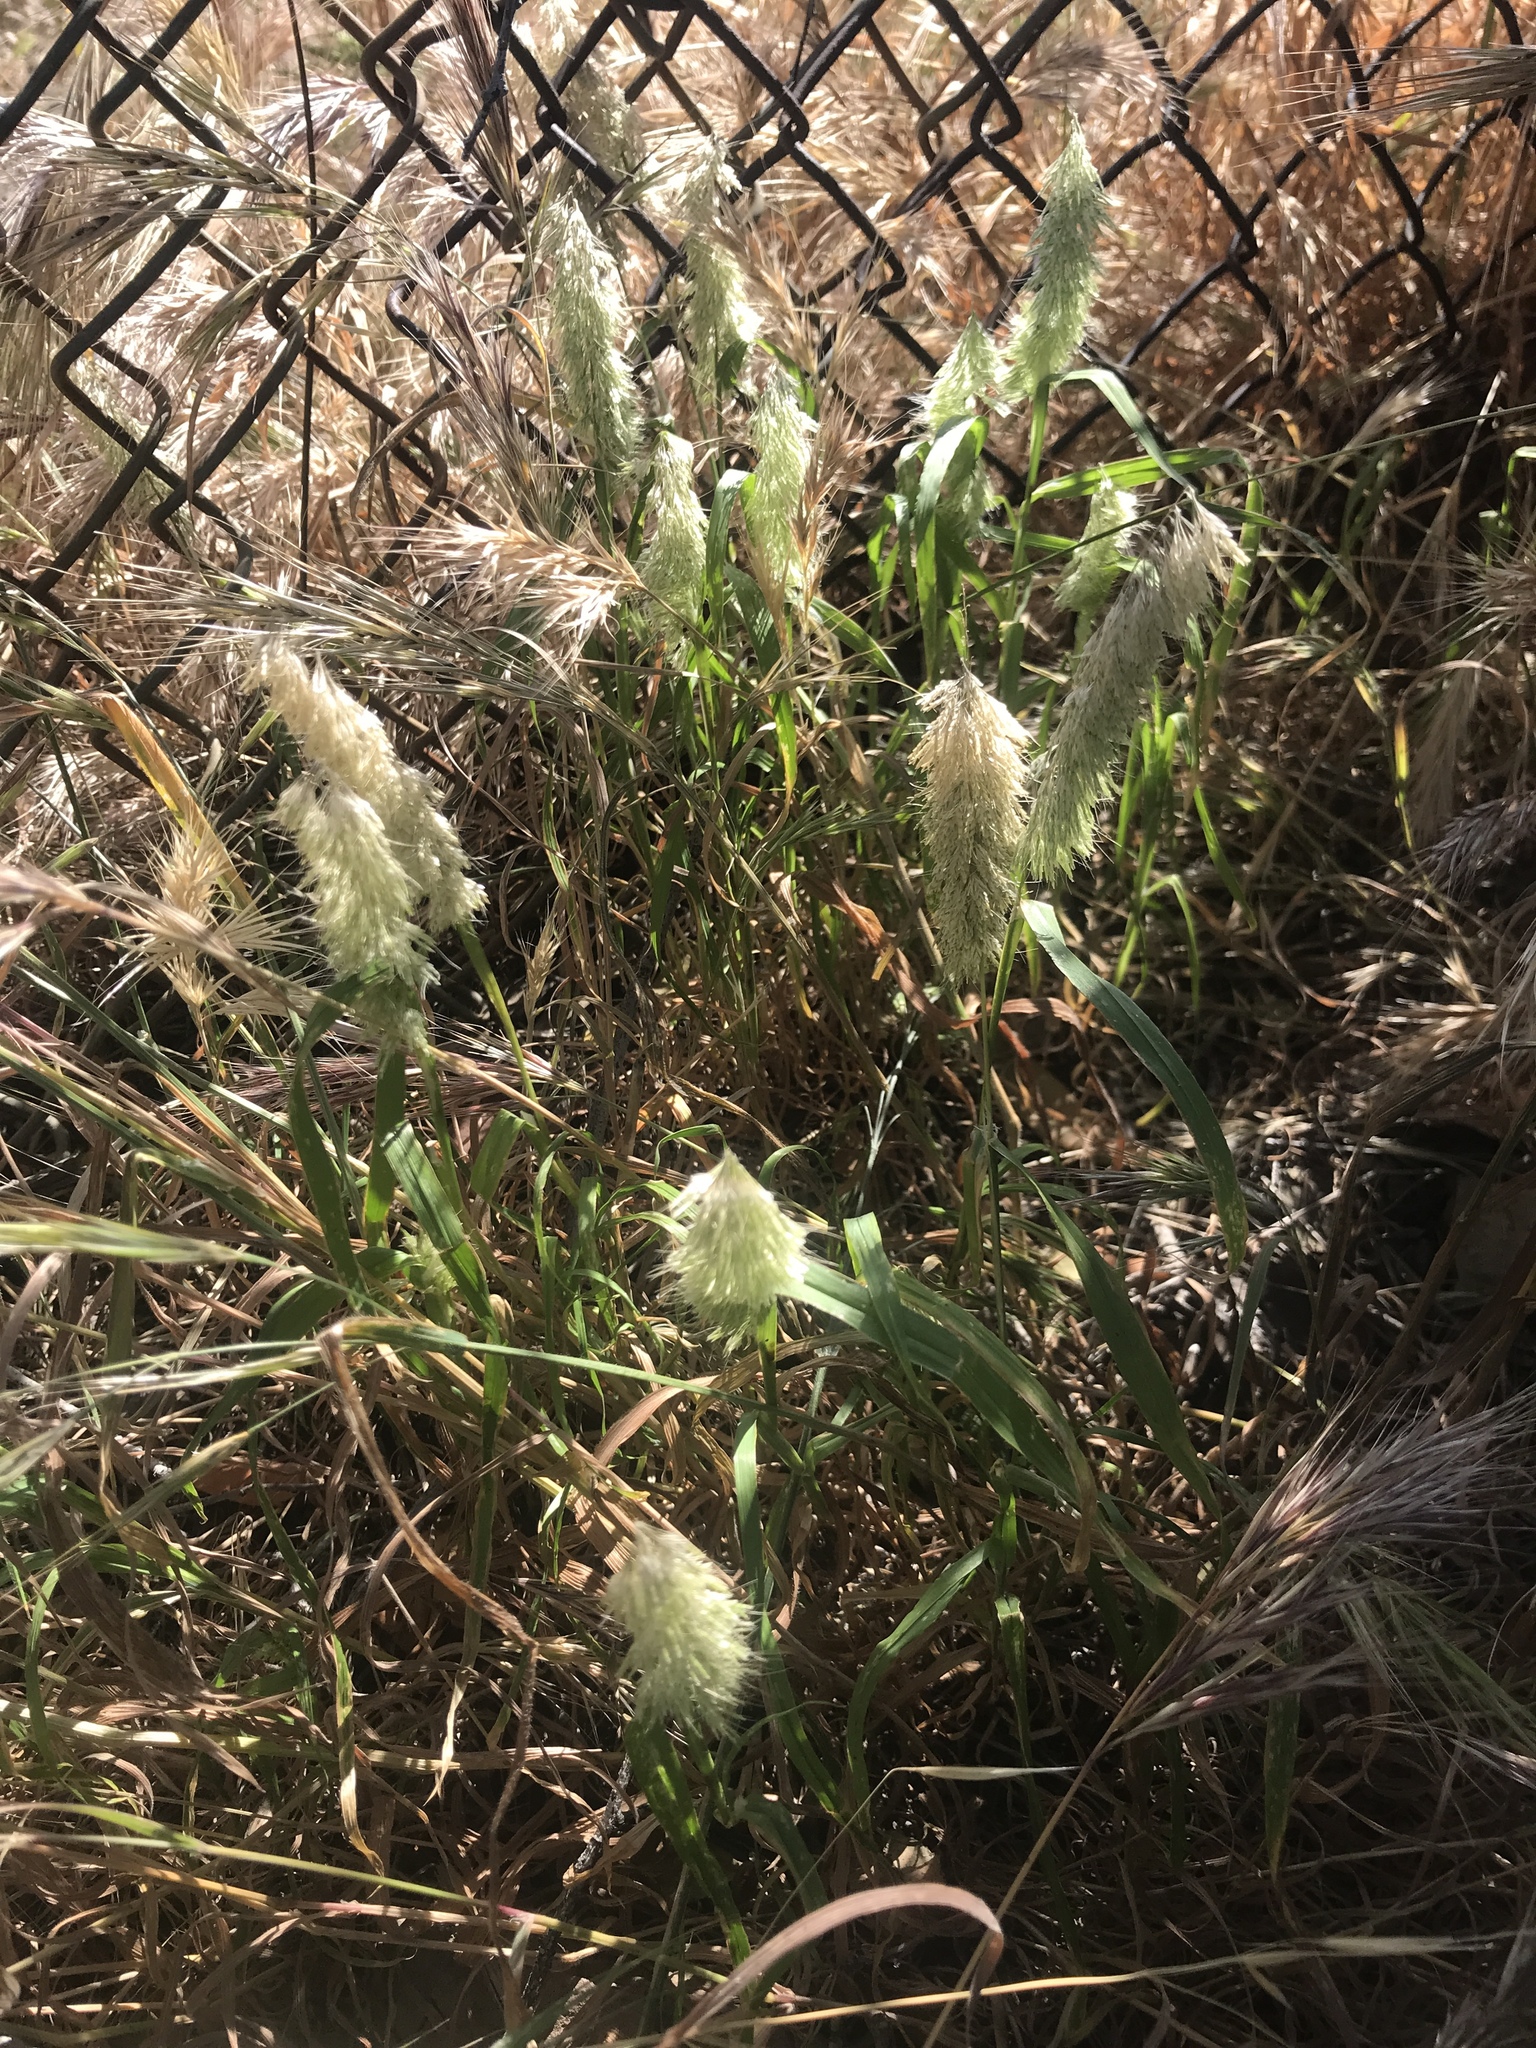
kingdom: Plantae
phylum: Tracheophyta
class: Liliopsida
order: Poales
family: Poaceae
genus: Lamarckia
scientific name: Lamarckia aurea
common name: Golden dog's-tail
